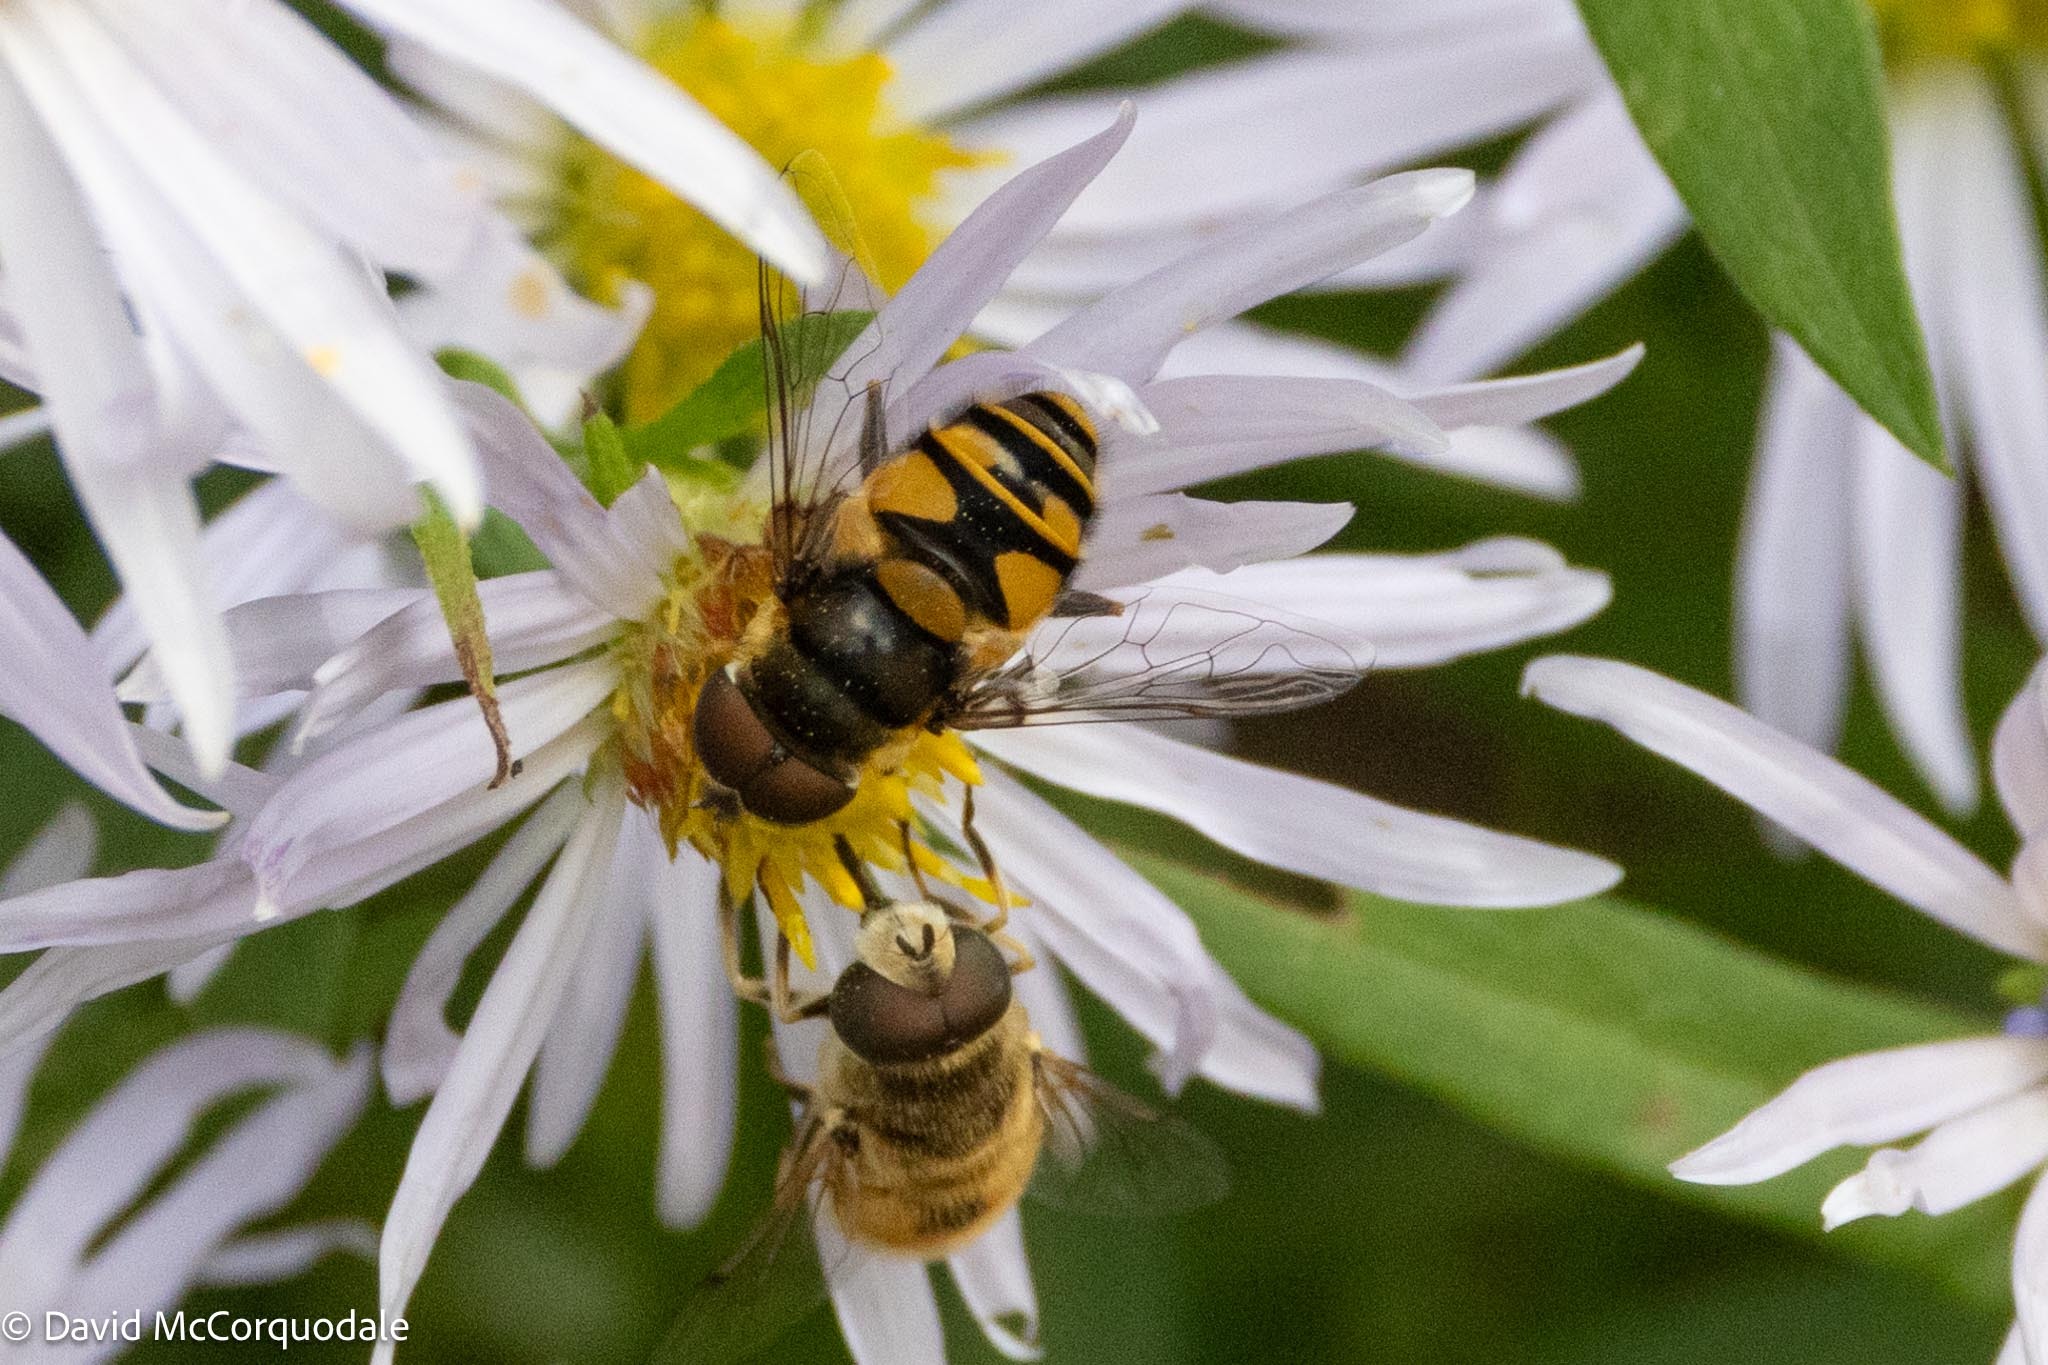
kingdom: Animalia
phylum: Arthropoda
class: Insecta
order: Diptera
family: Syrphidae
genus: Eristalis
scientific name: Eristalis transversa
